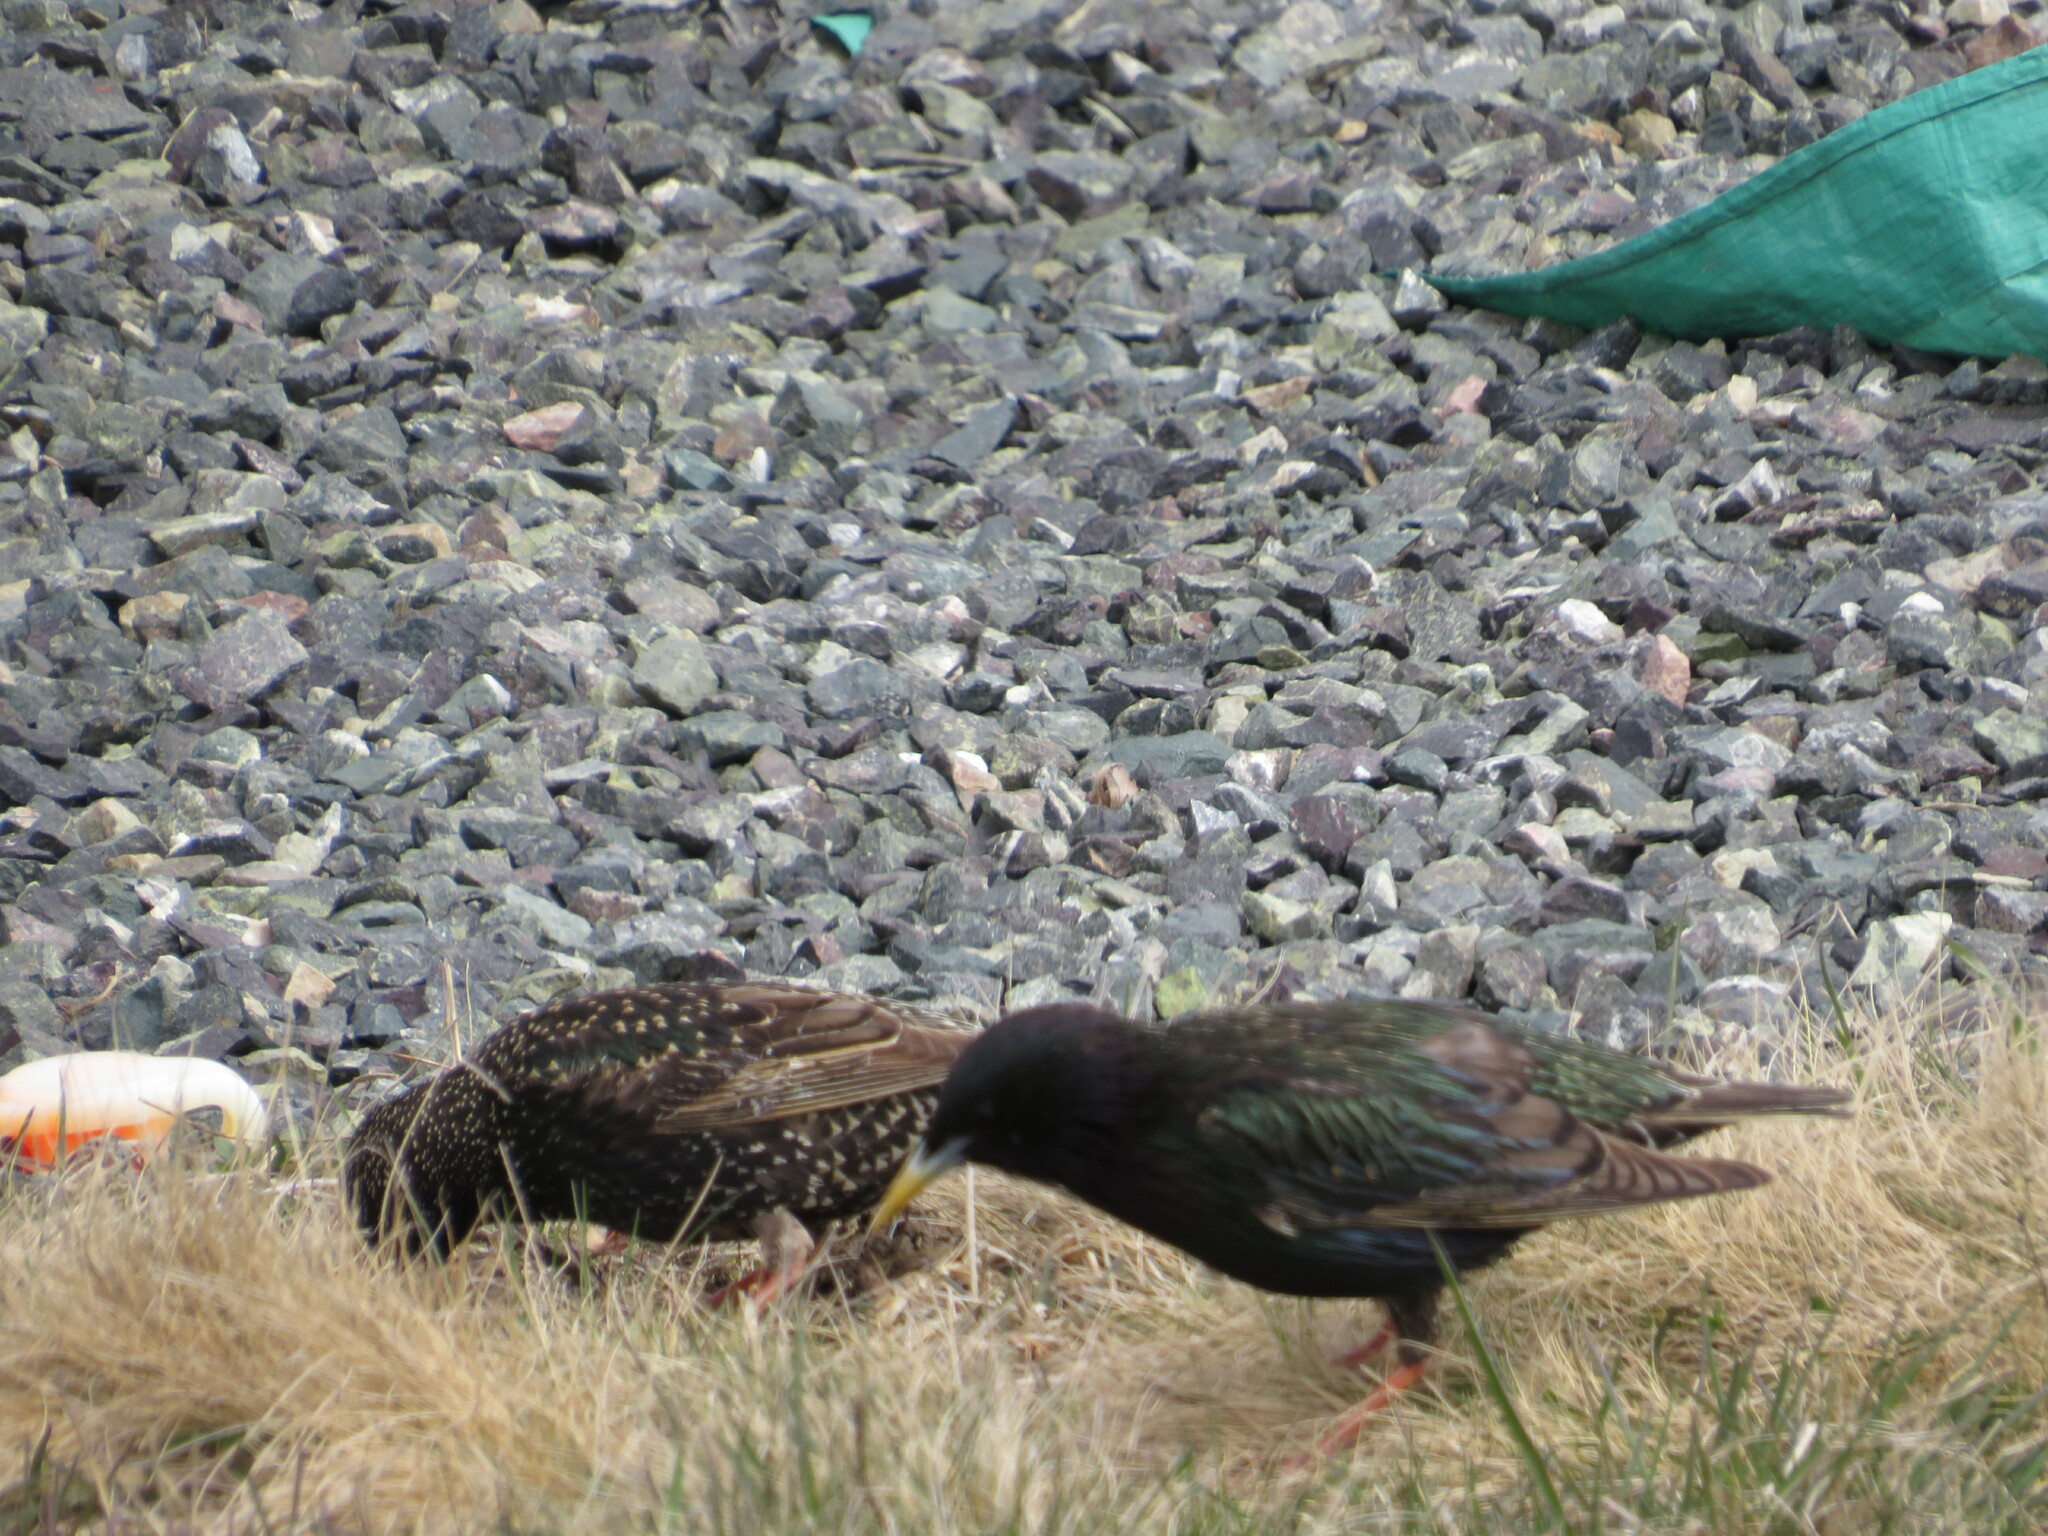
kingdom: Animalia
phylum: Chordata
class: Aves
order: Passeriformes
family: Sturnidae
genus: Sturnus
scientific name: Sturnus vulgaris
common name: Common starling
